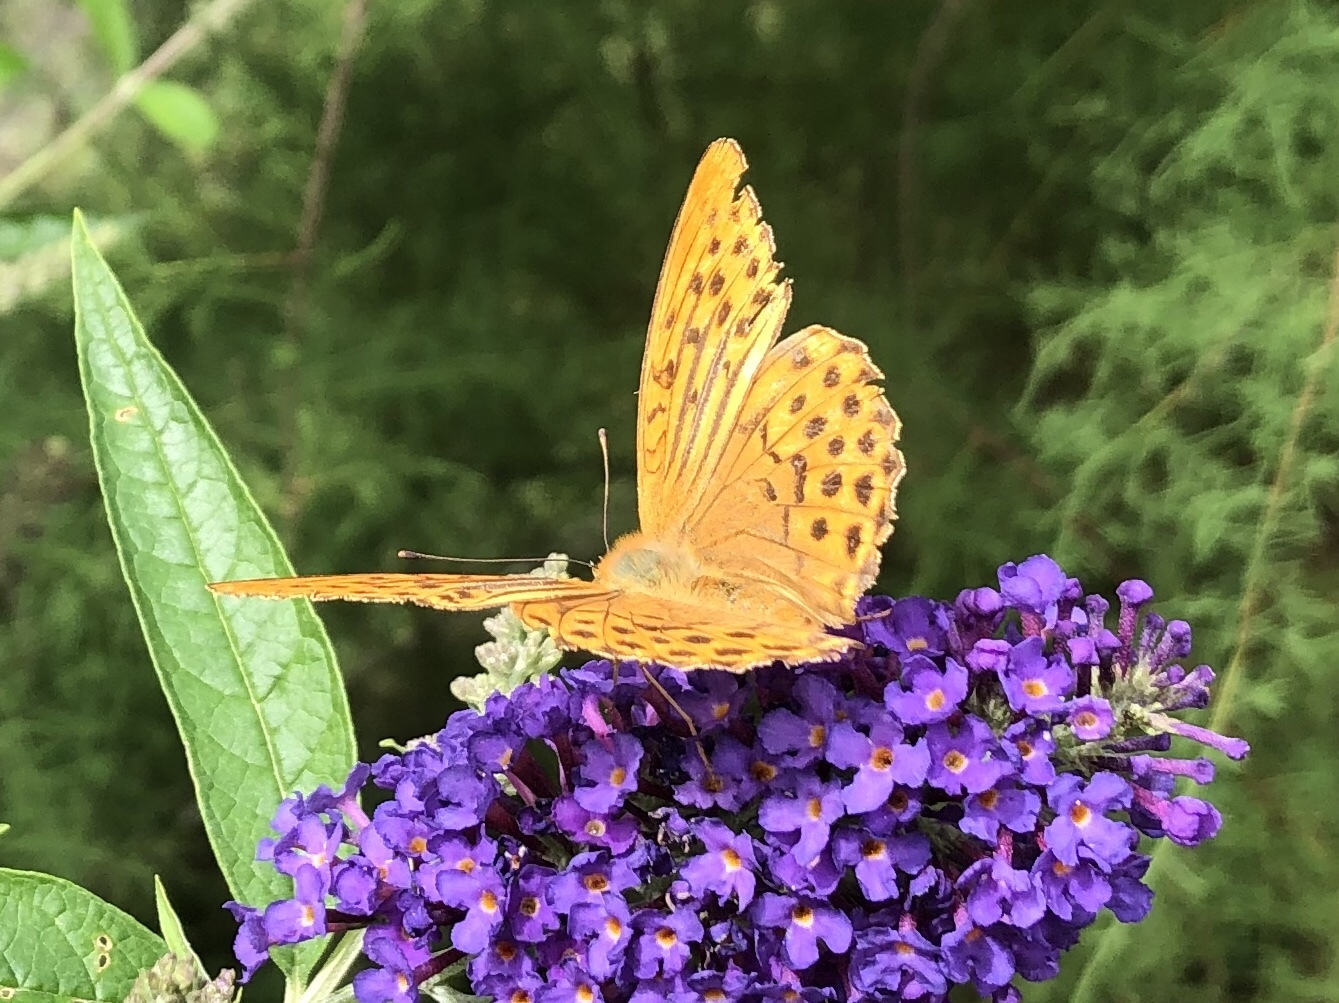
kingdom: Animalia
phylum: Arthropoda
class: Insecta
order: Lepidoptera
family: Nymphalidae
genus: Argynnis
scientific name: Argynnis paphia
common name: Silver-washed fritillary
